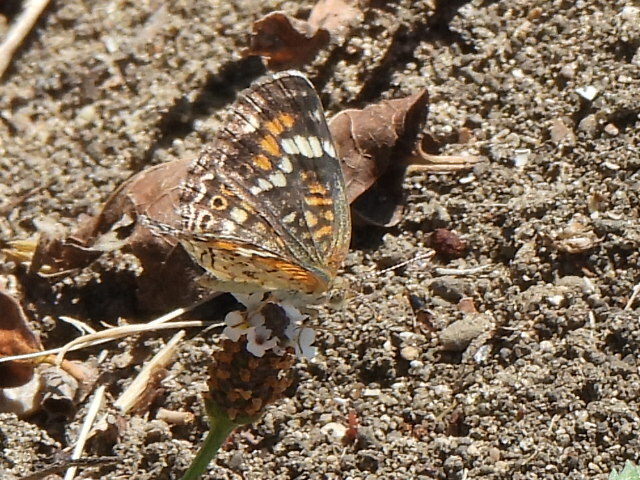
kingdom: Animalia
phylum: Arthropoda
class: Insecta
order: Lepidoptera
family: Nymphalidae
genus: Phyciodes
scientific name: Phyciodes phaon
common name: Phaon crescent
